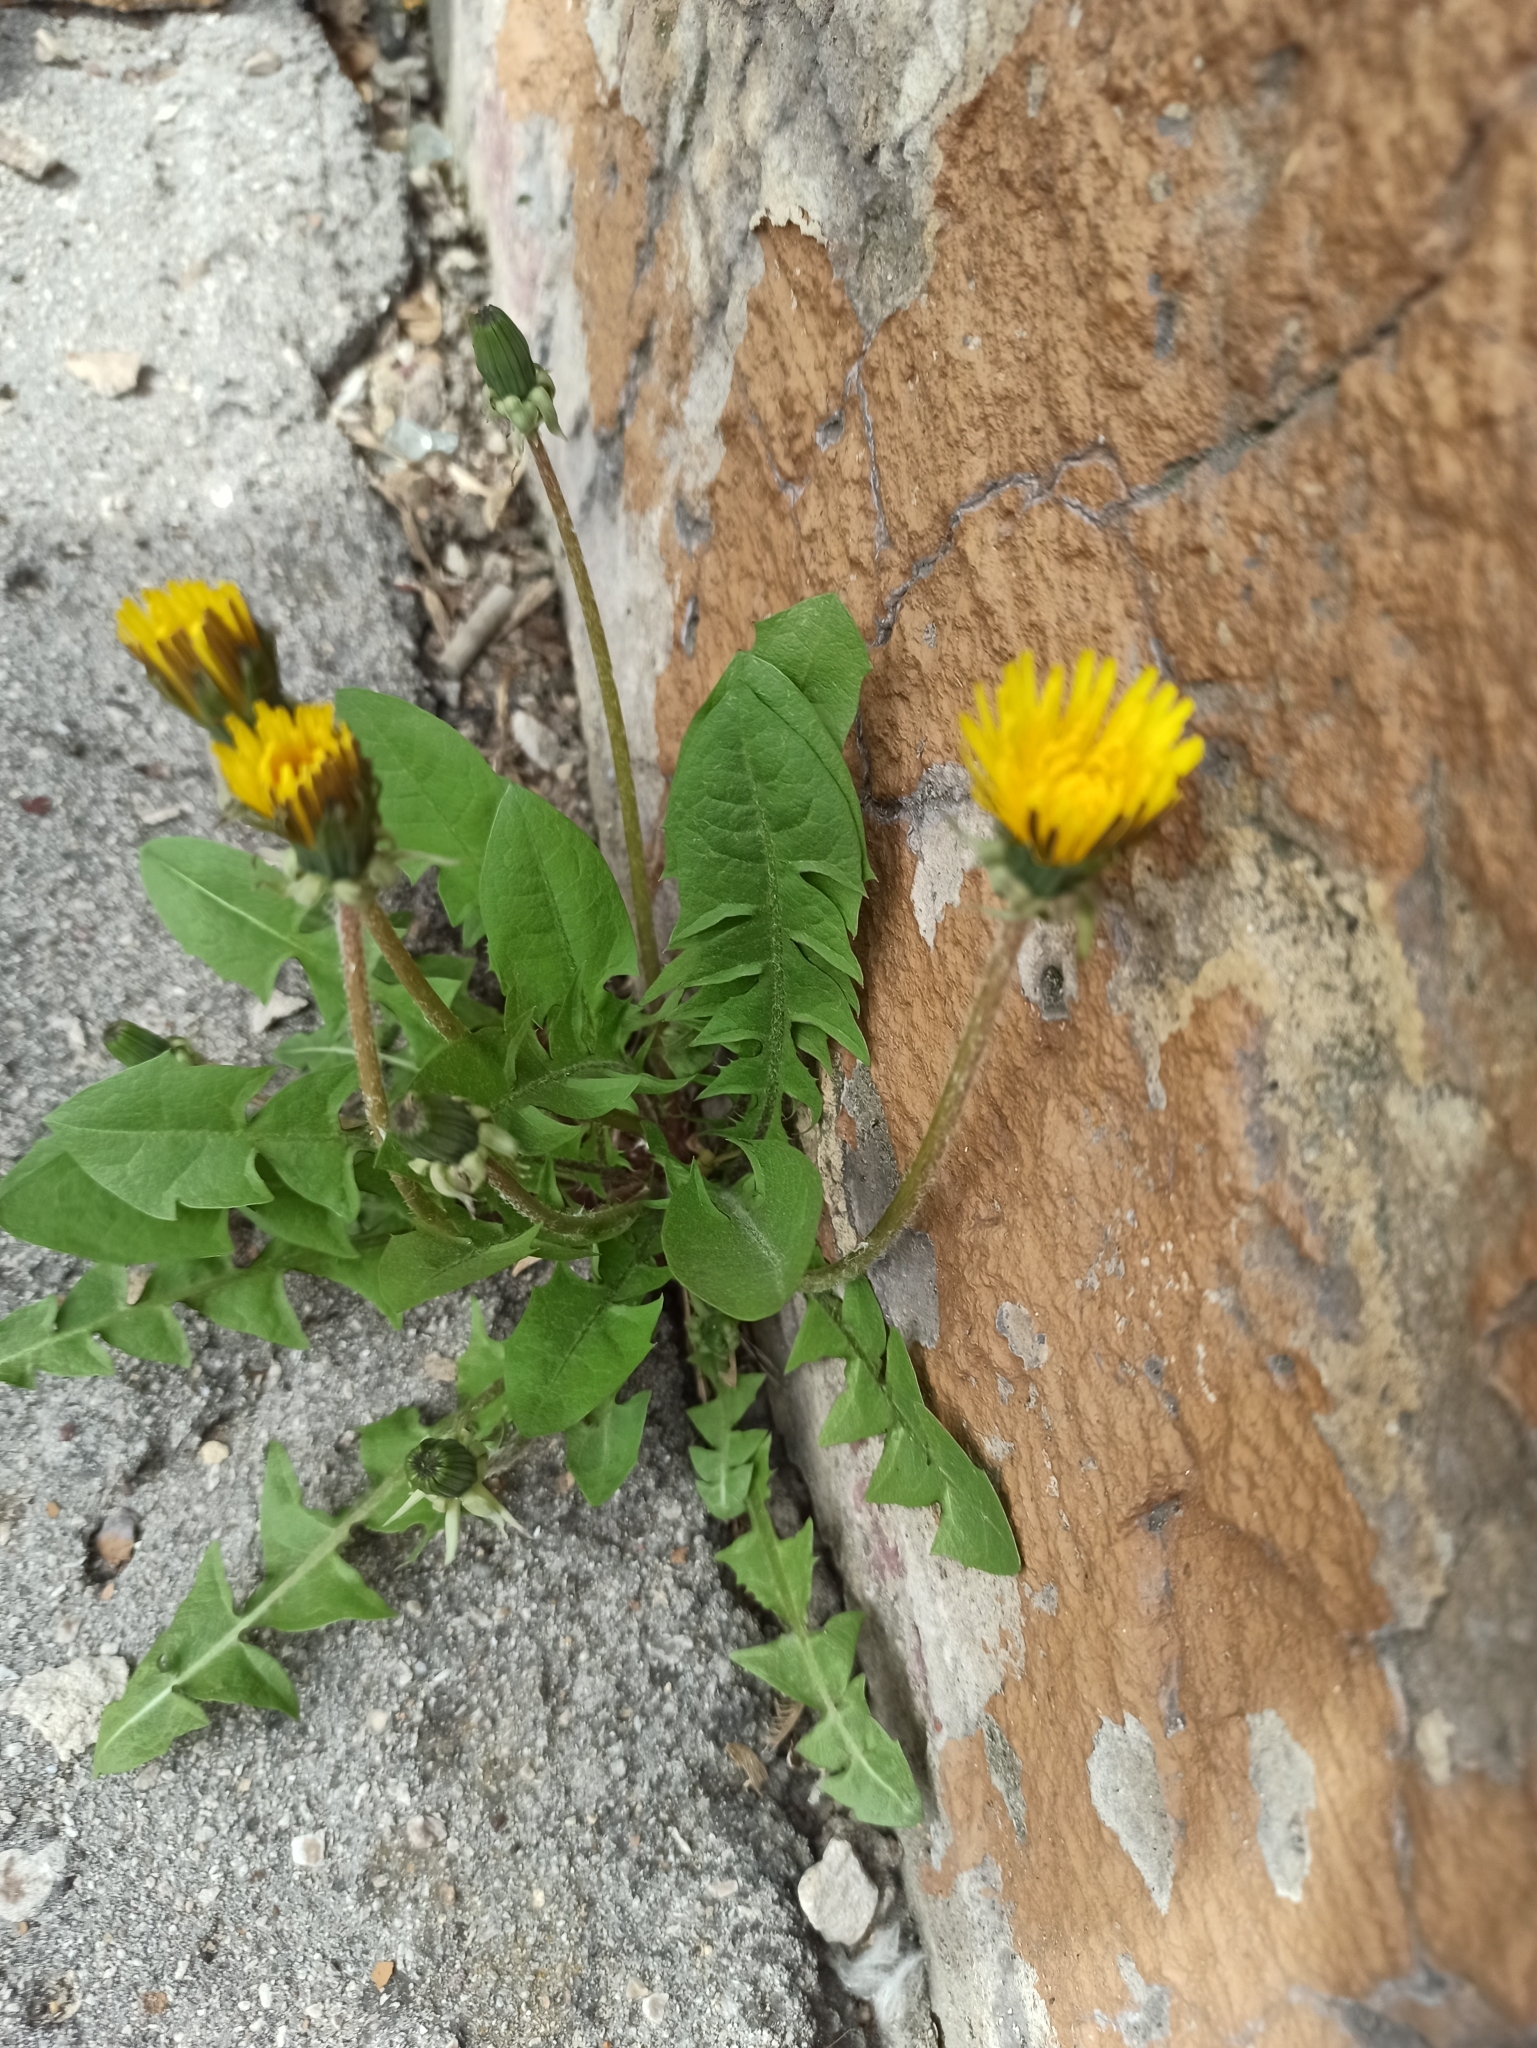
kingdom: Plantae
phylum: Tracheophyta
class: Magnoliopsida
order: Asterales
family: Asteraceae
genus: Taraxacum
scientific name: Taraxacum officinale
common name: Common dandelion
